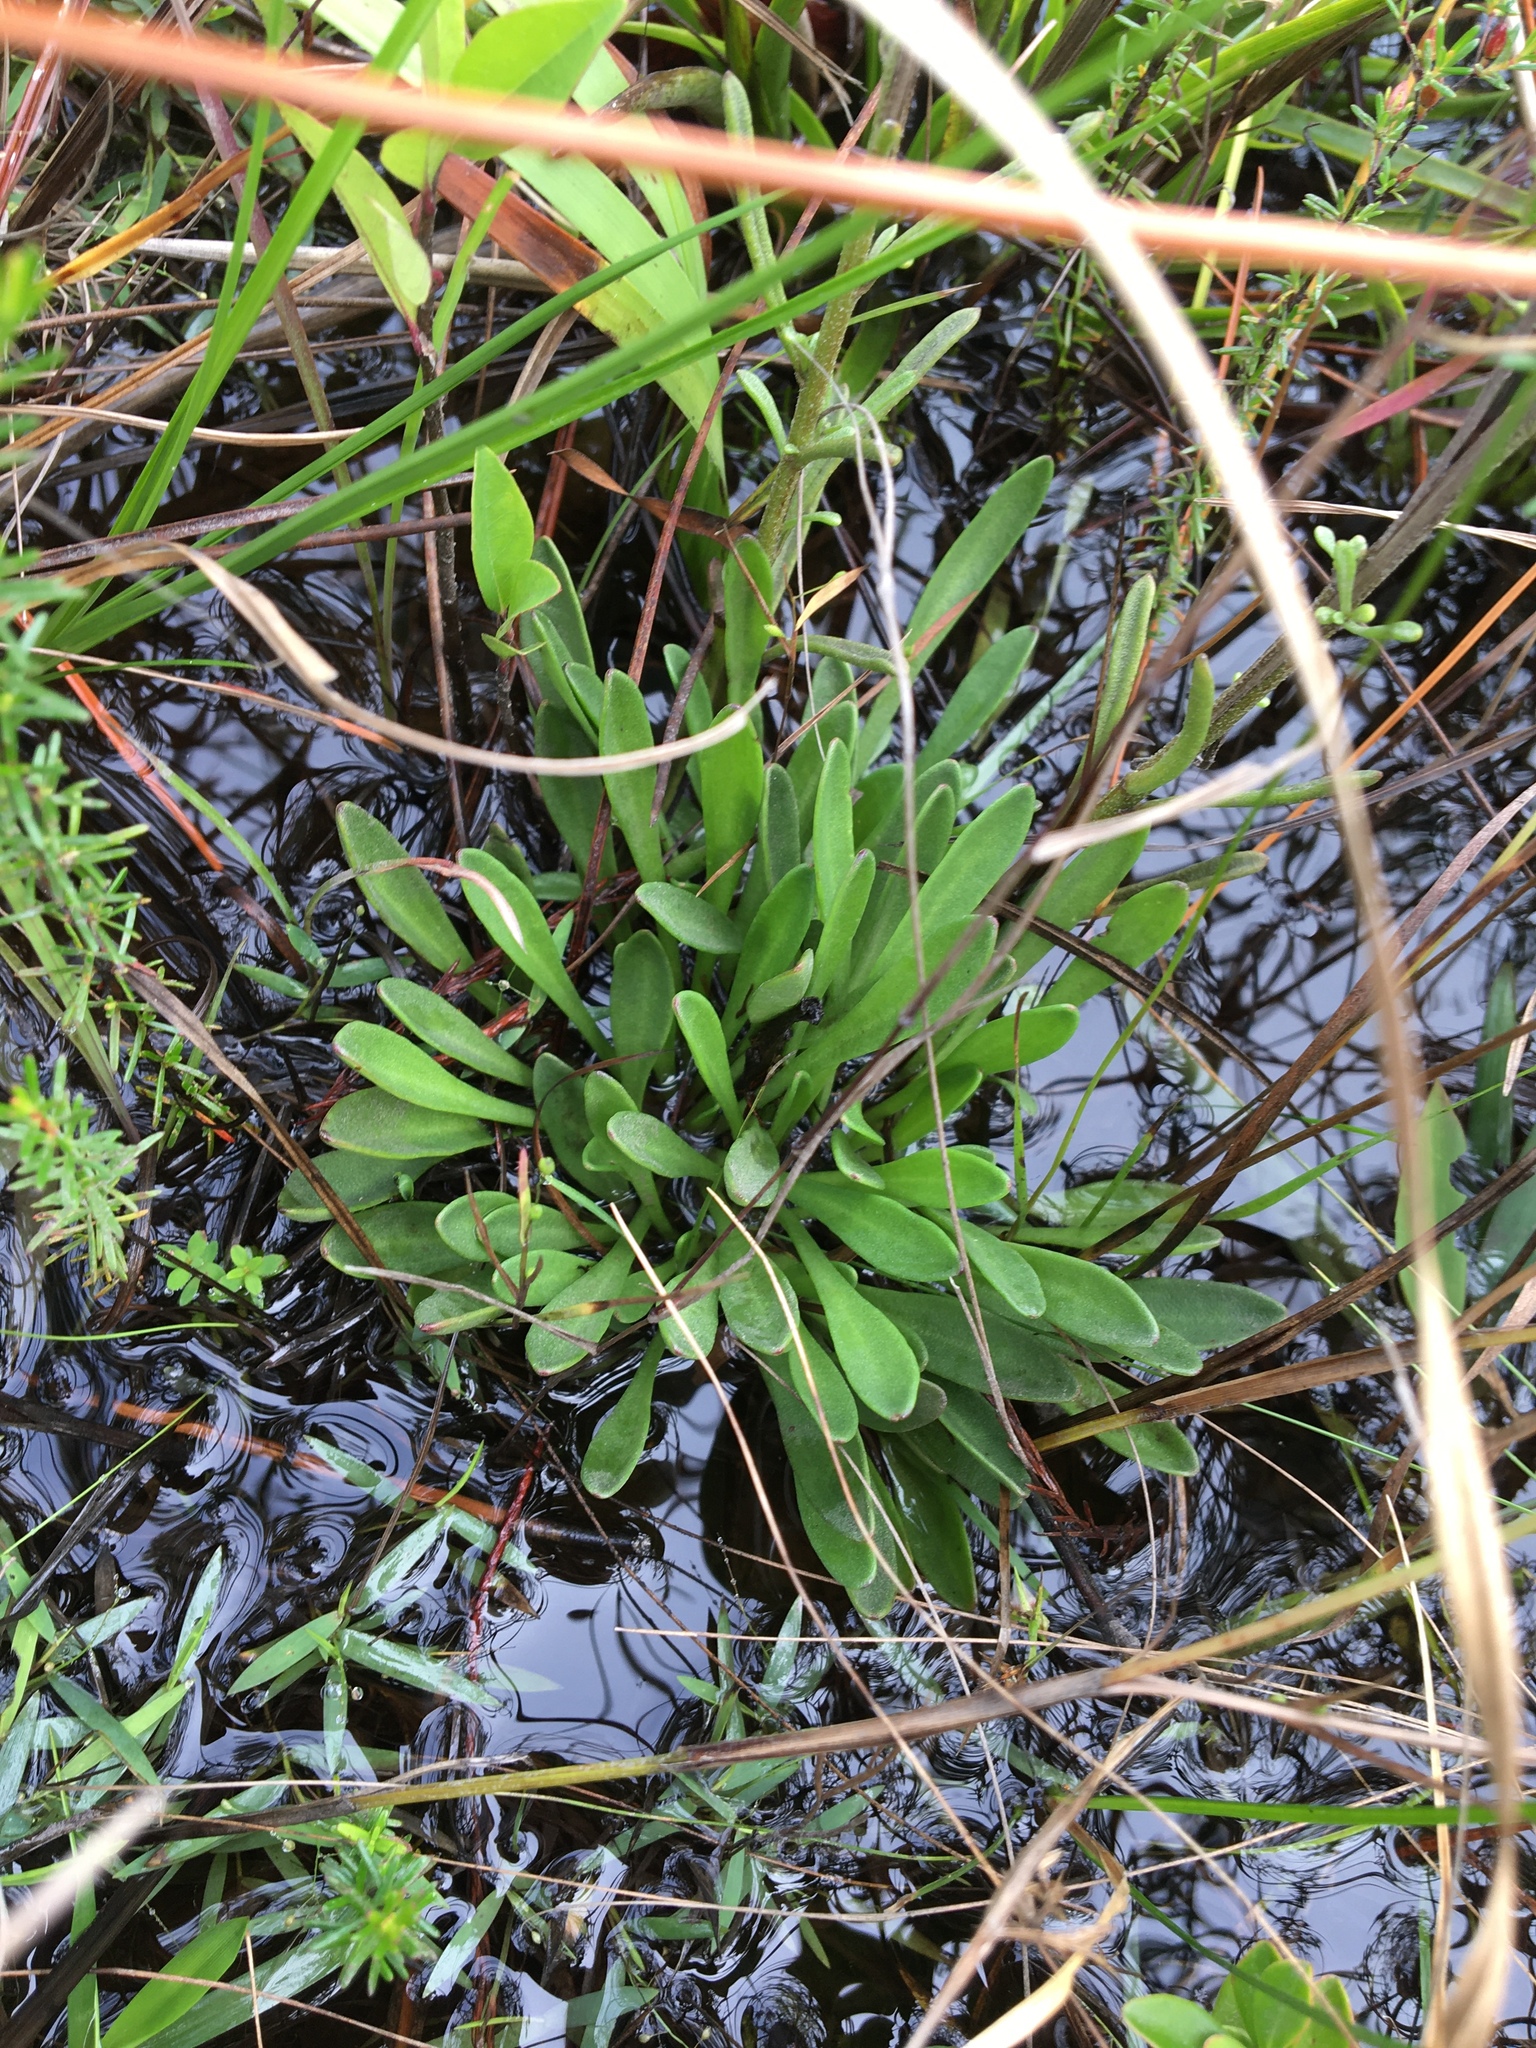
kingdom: Plantae
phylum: Tracheophyta
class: Magnoliopsida
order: Asterales
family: Asteraceae
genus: Balduina
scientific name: Balduina angustifolia
